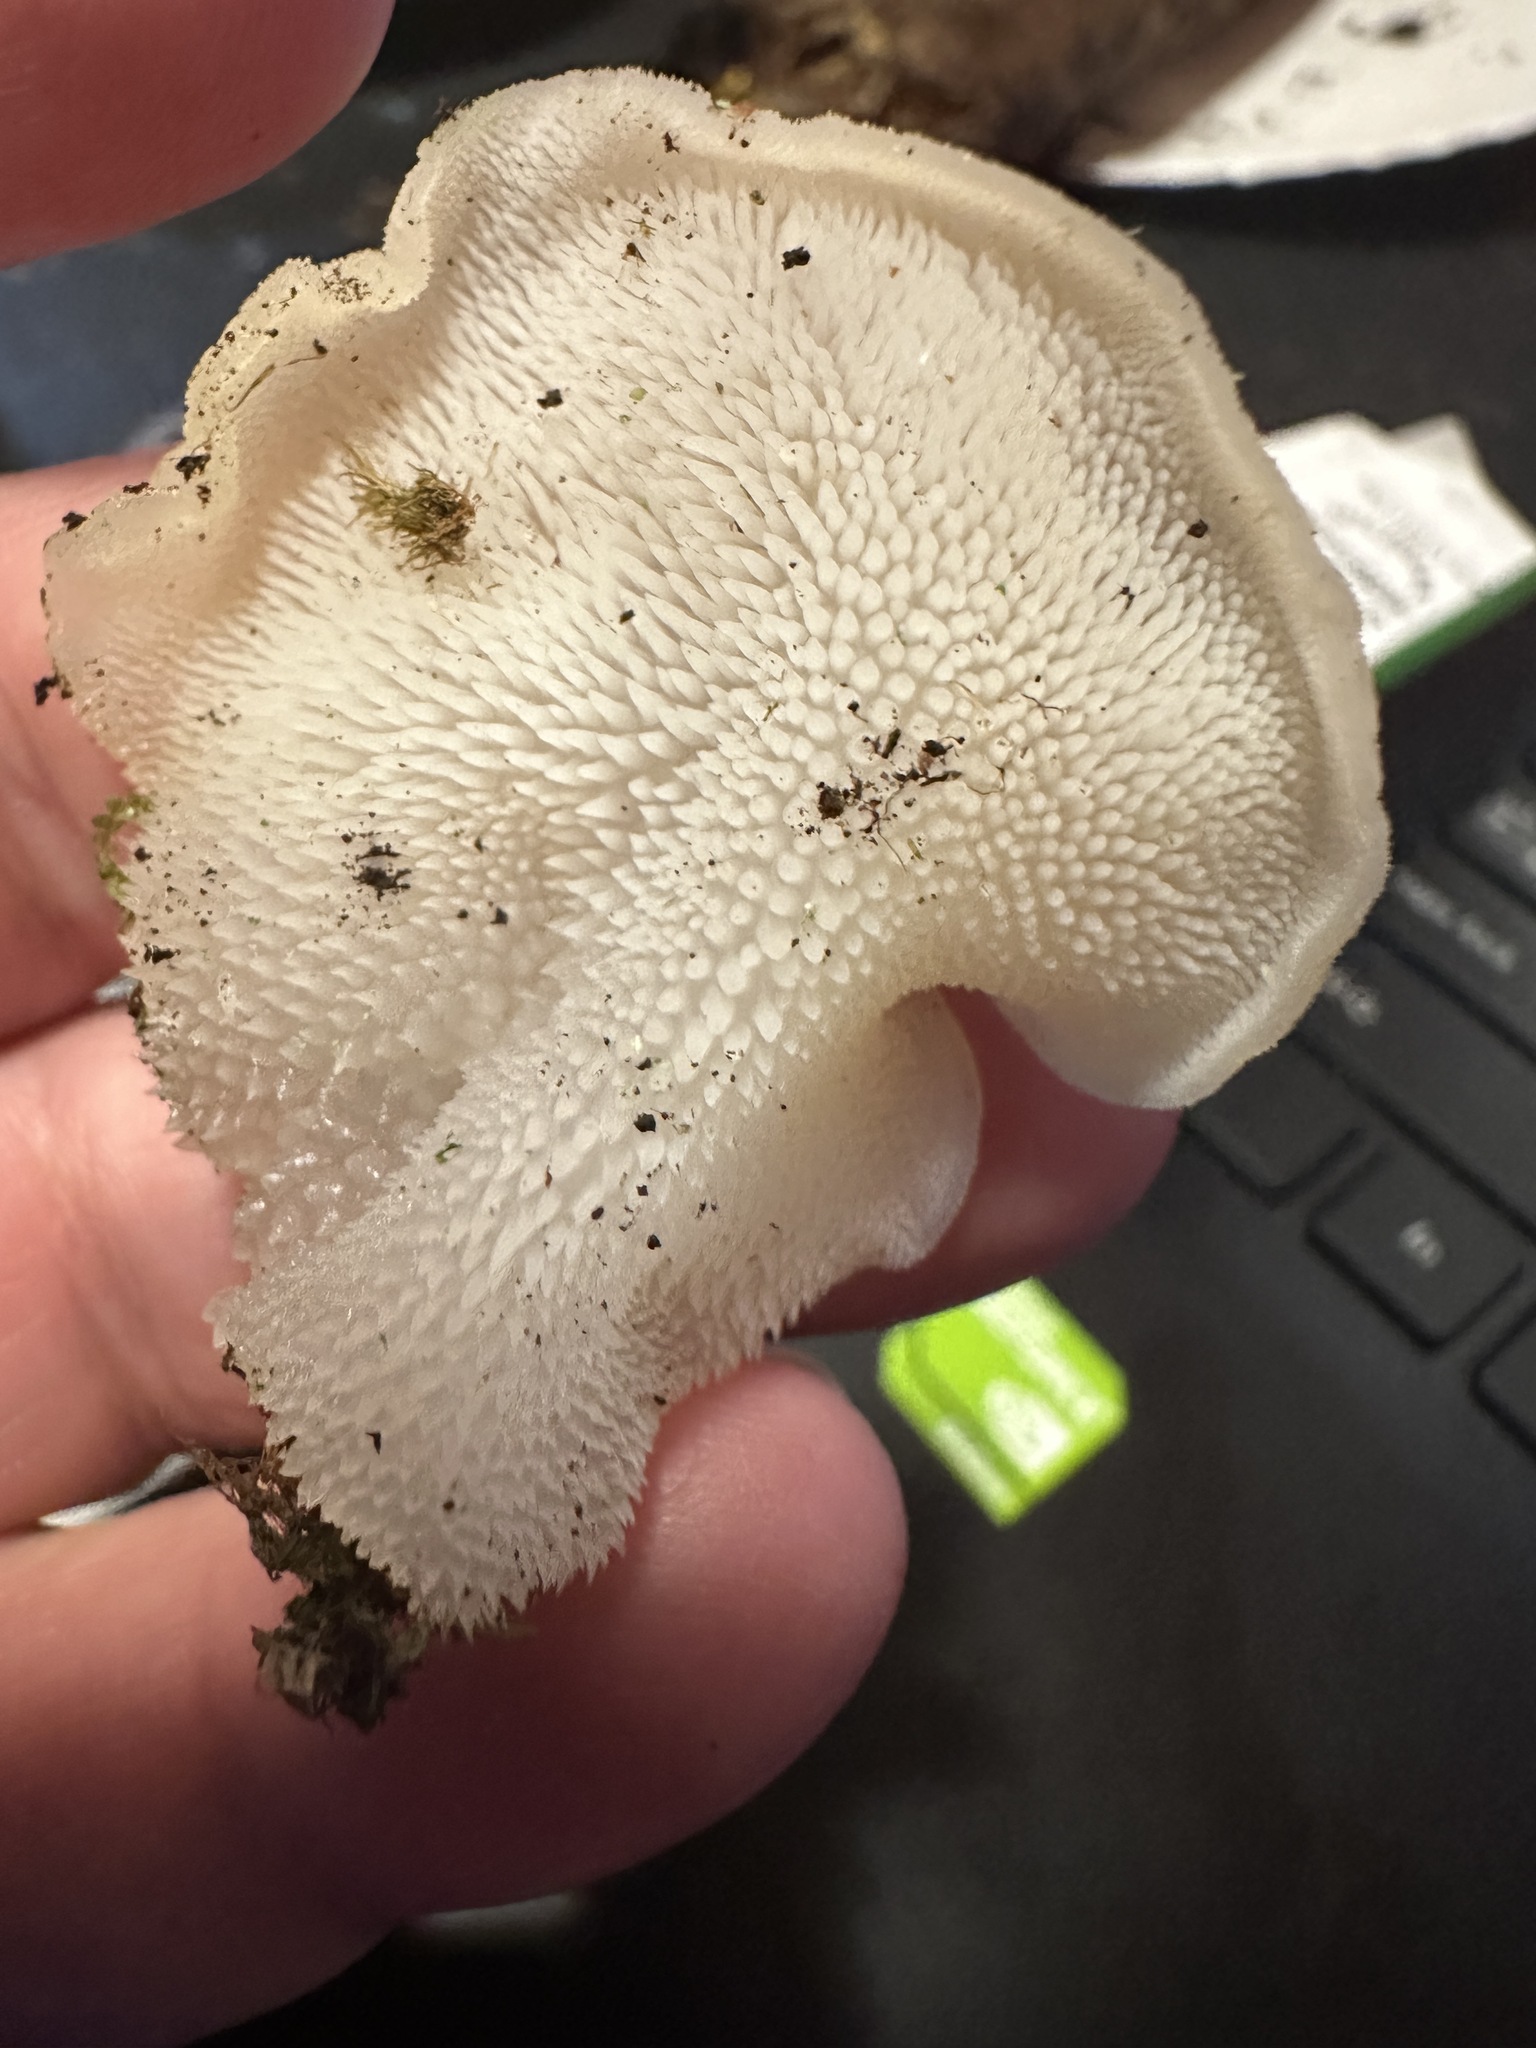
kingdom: Fungi
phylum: Basidiomycota
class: Agaricomycetes
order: Auriculariales
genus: Pseudohydnum
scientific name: Pseudohydnum gelatinosum
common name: Jelly tongue
